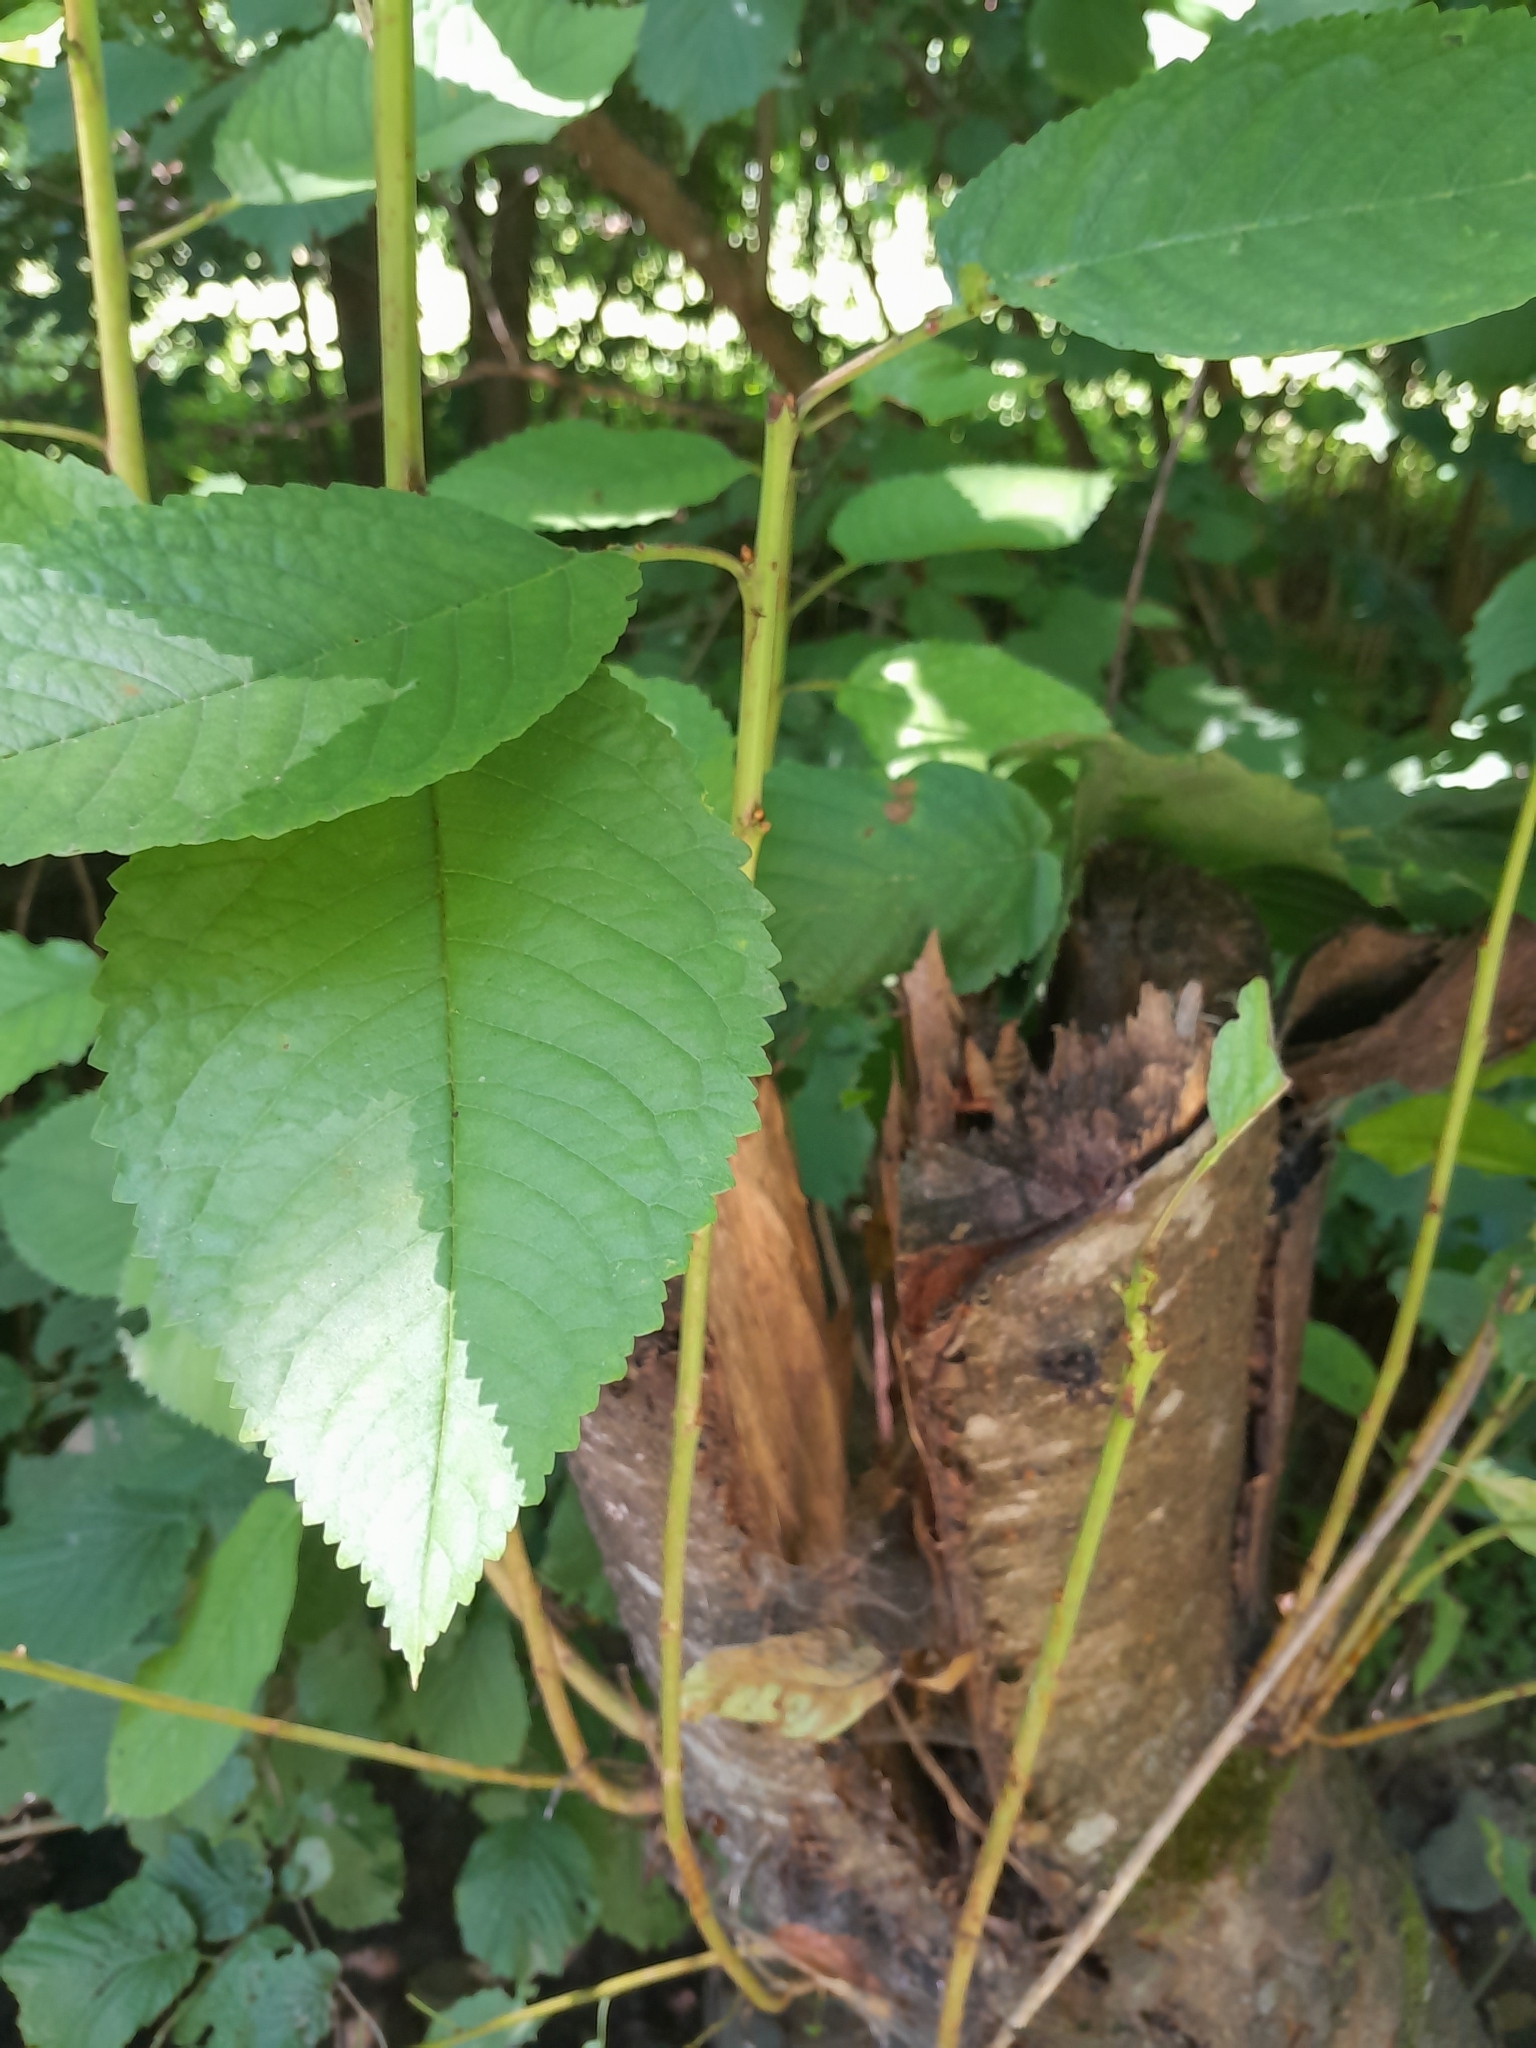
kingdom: Plantae
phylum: Tracheophyta
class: Magnoliopsida
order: Rosales
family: Rosaceae
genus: Prunus
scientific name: Prunus avium
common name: Sweet cherry
